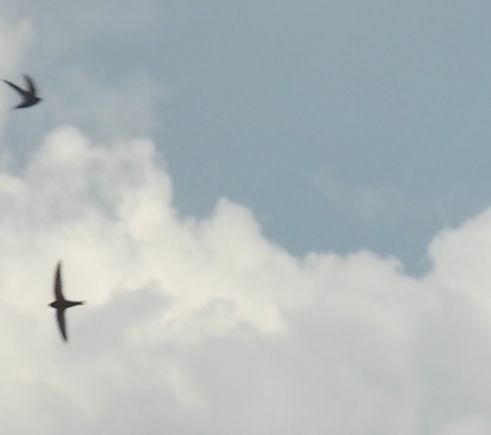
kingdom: Animalia
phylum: Chordata
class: Aves
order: Apodiformes
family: Apodidae
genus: Apus
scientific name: Apus apus
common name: Common swift
